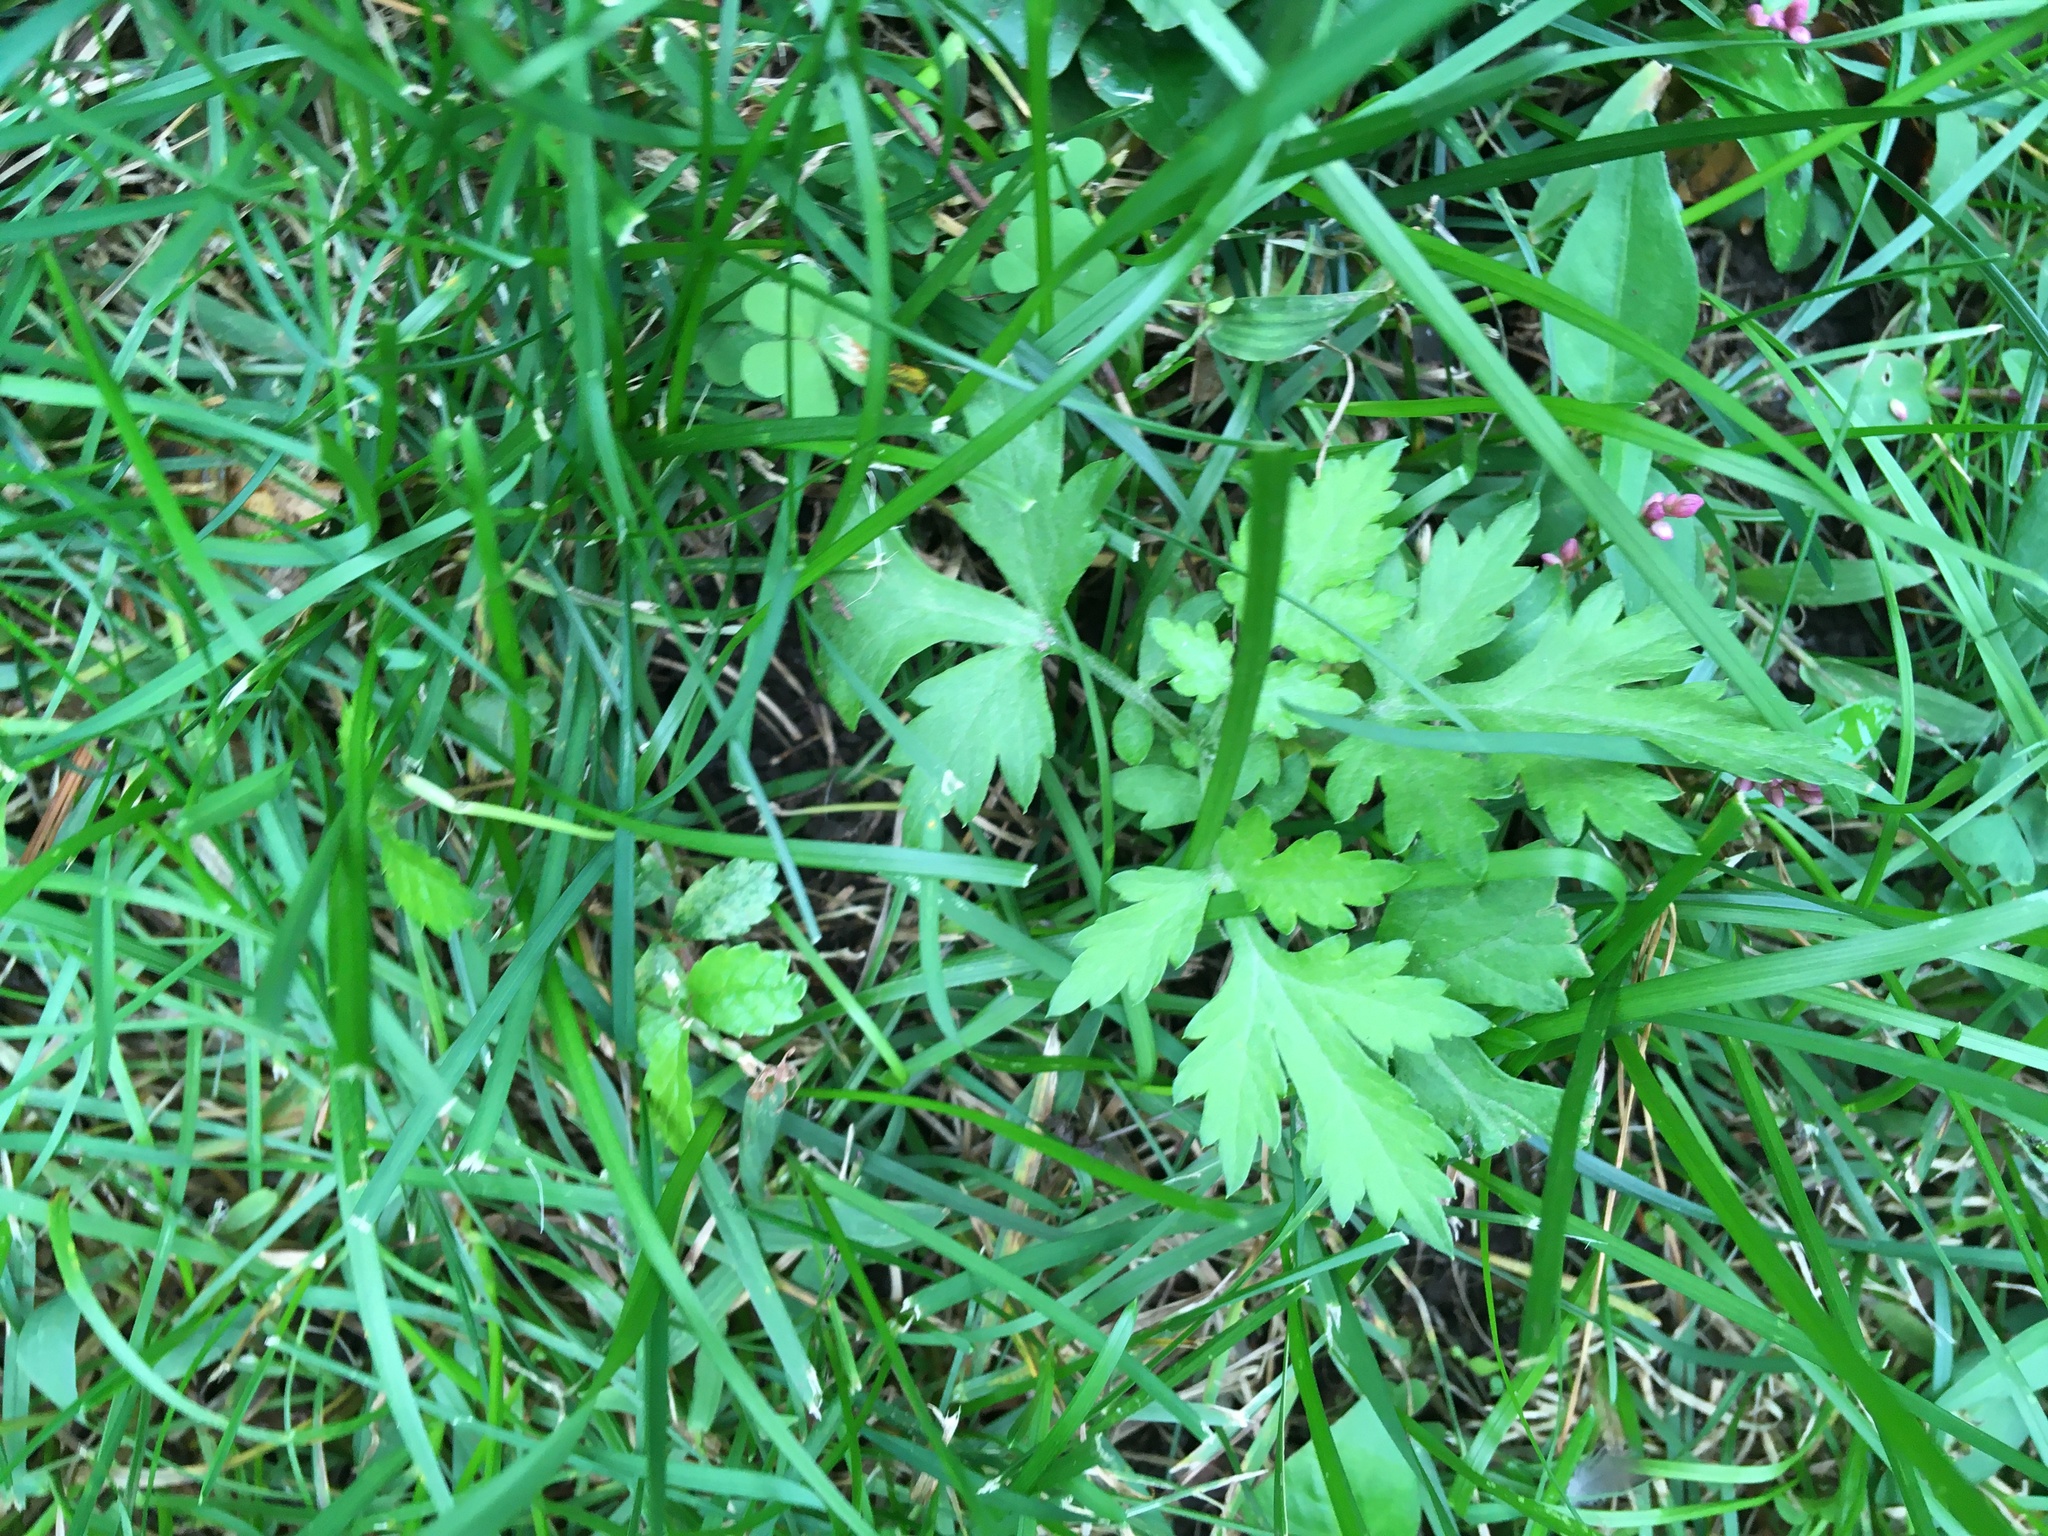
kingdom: Plantae
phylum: Tracheophyta
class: Magnoliopsida
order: Asterales
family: Asteraceae
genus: Artemisia
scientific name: Artemisia vulgaris
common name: Mugwort
